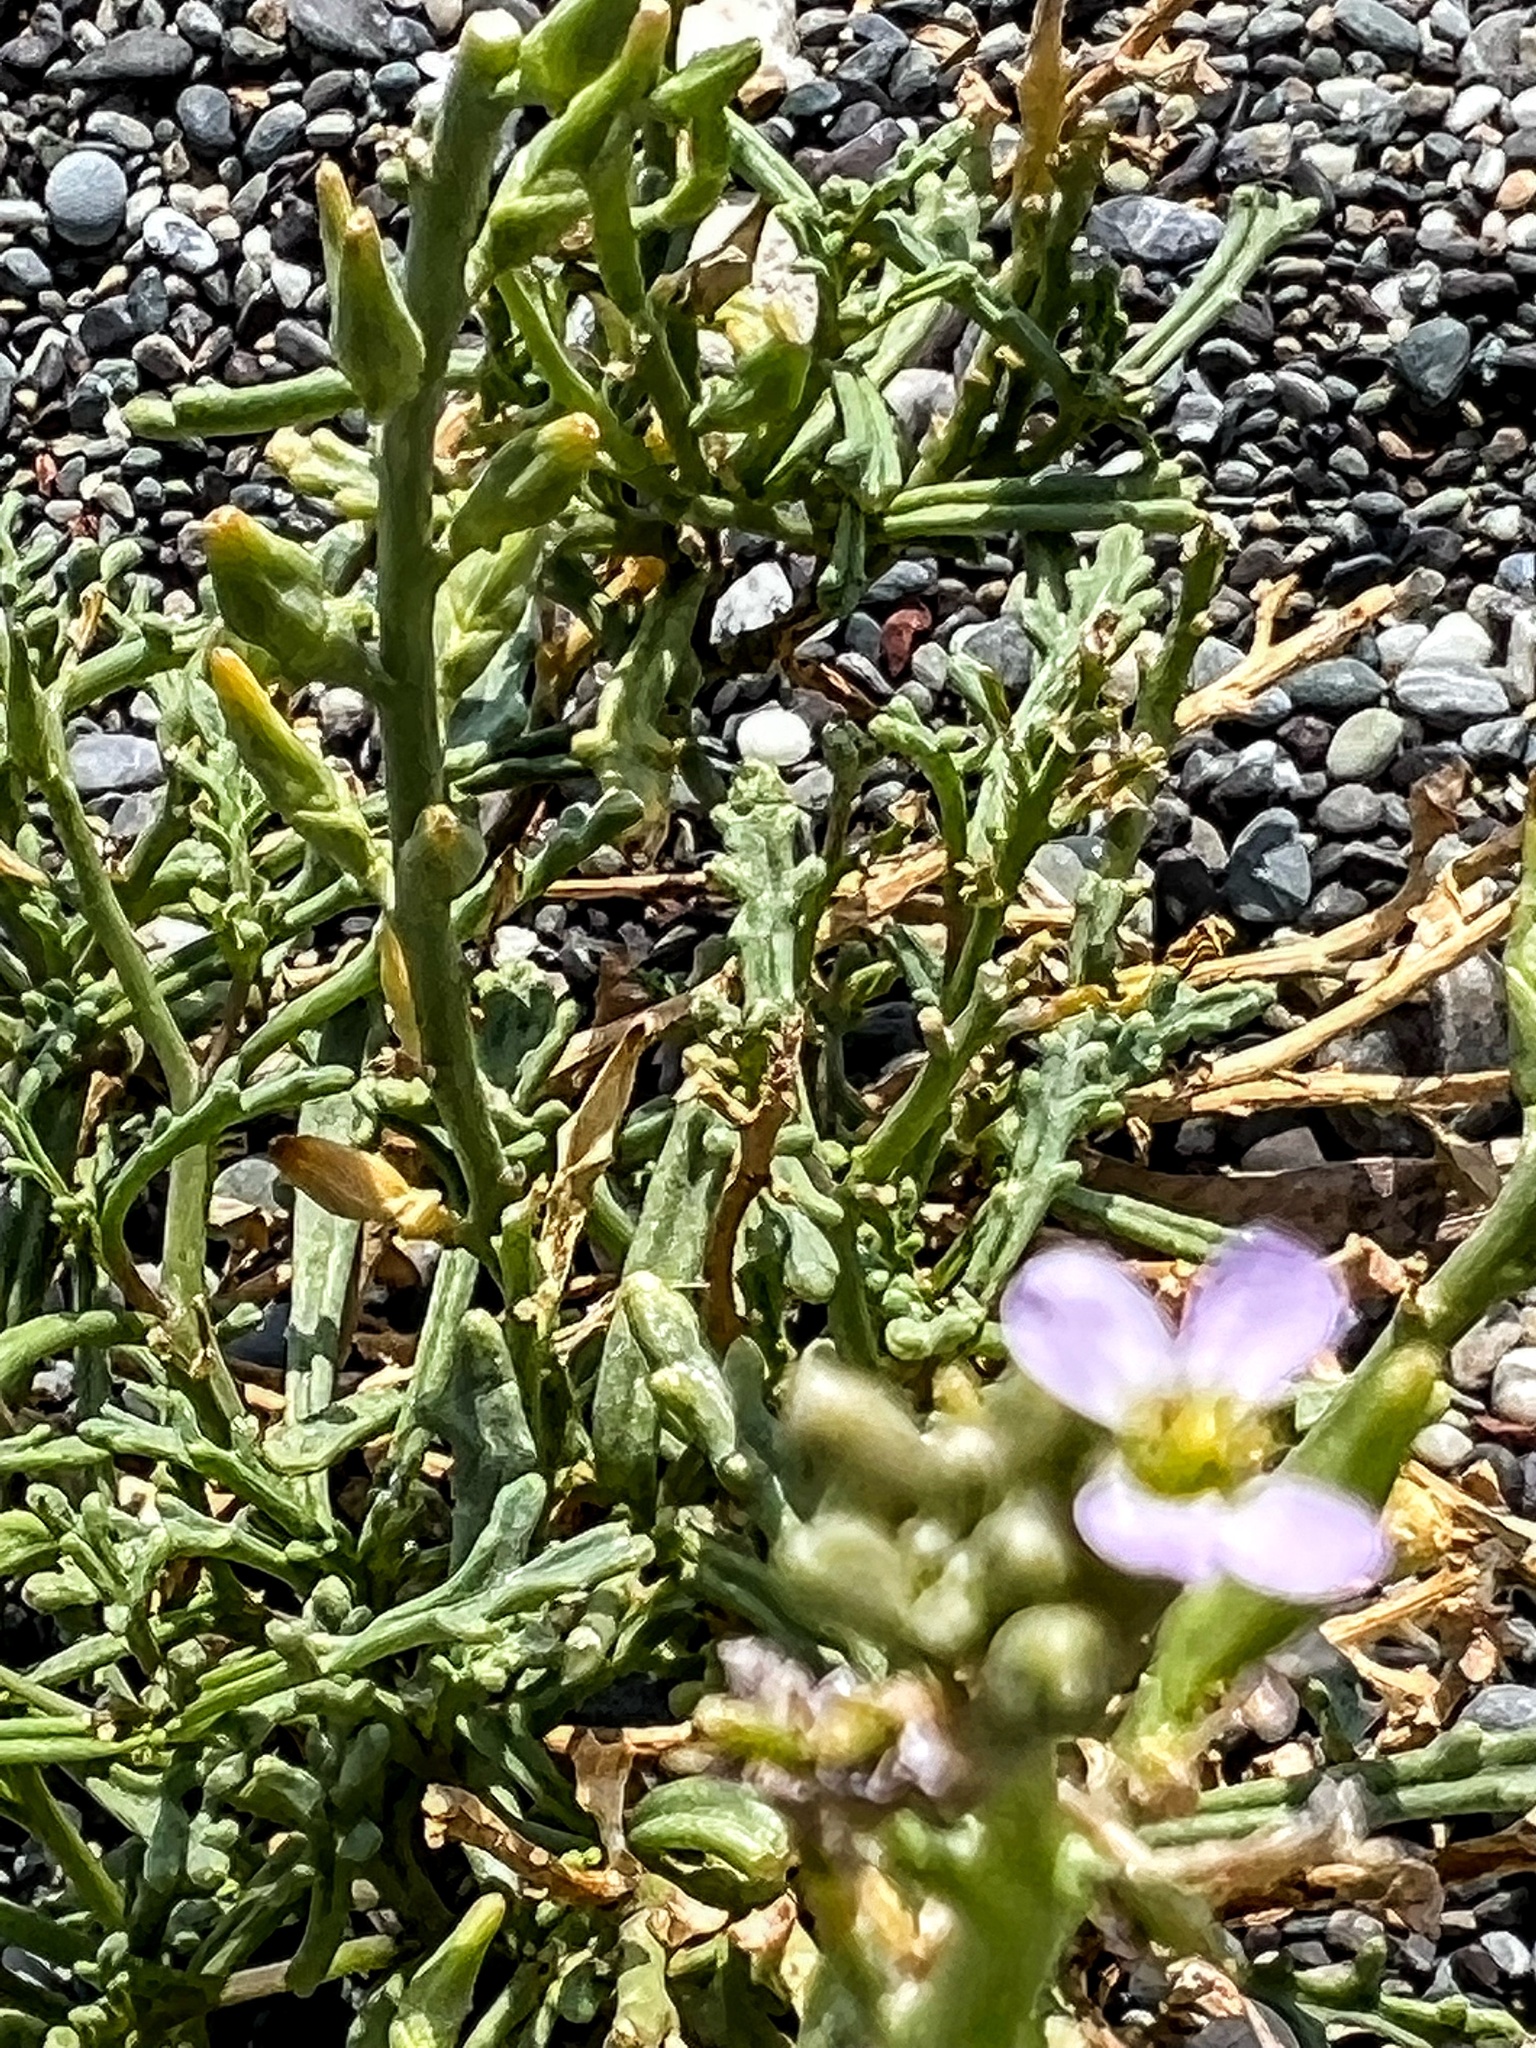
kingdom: Plantae
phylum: Tracheophyta
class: Magnoliopsida
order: Brassicales
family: Brassicaceae
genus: Cakile
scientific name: Cakile maritima
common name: Sea rocket
